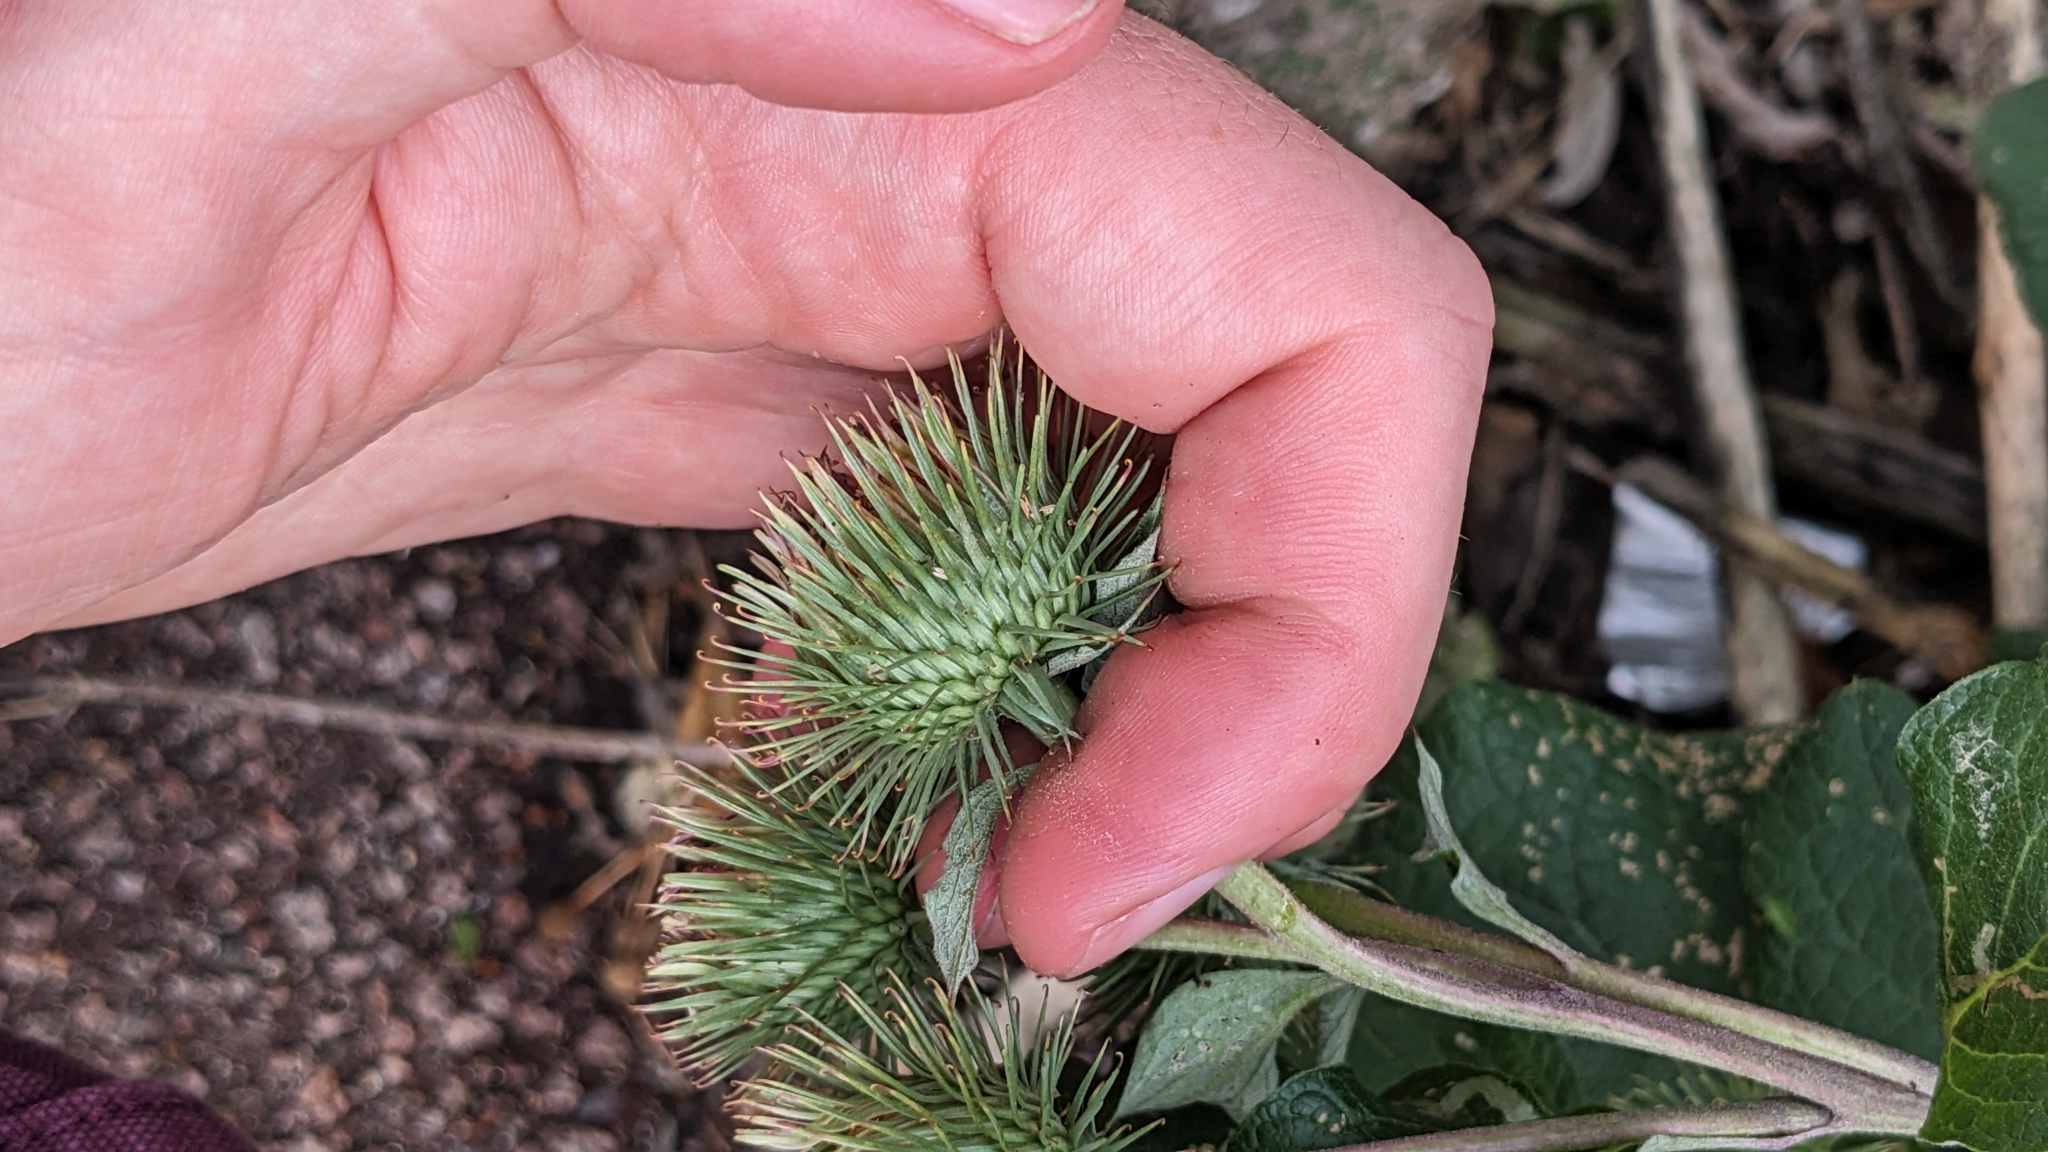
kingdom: Plantae
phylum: Tracheophyta
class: Magnoliopsida
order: Asterales
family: Asteraceae
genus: Arctium
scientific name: Arctium lappa
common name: Greater burdock
